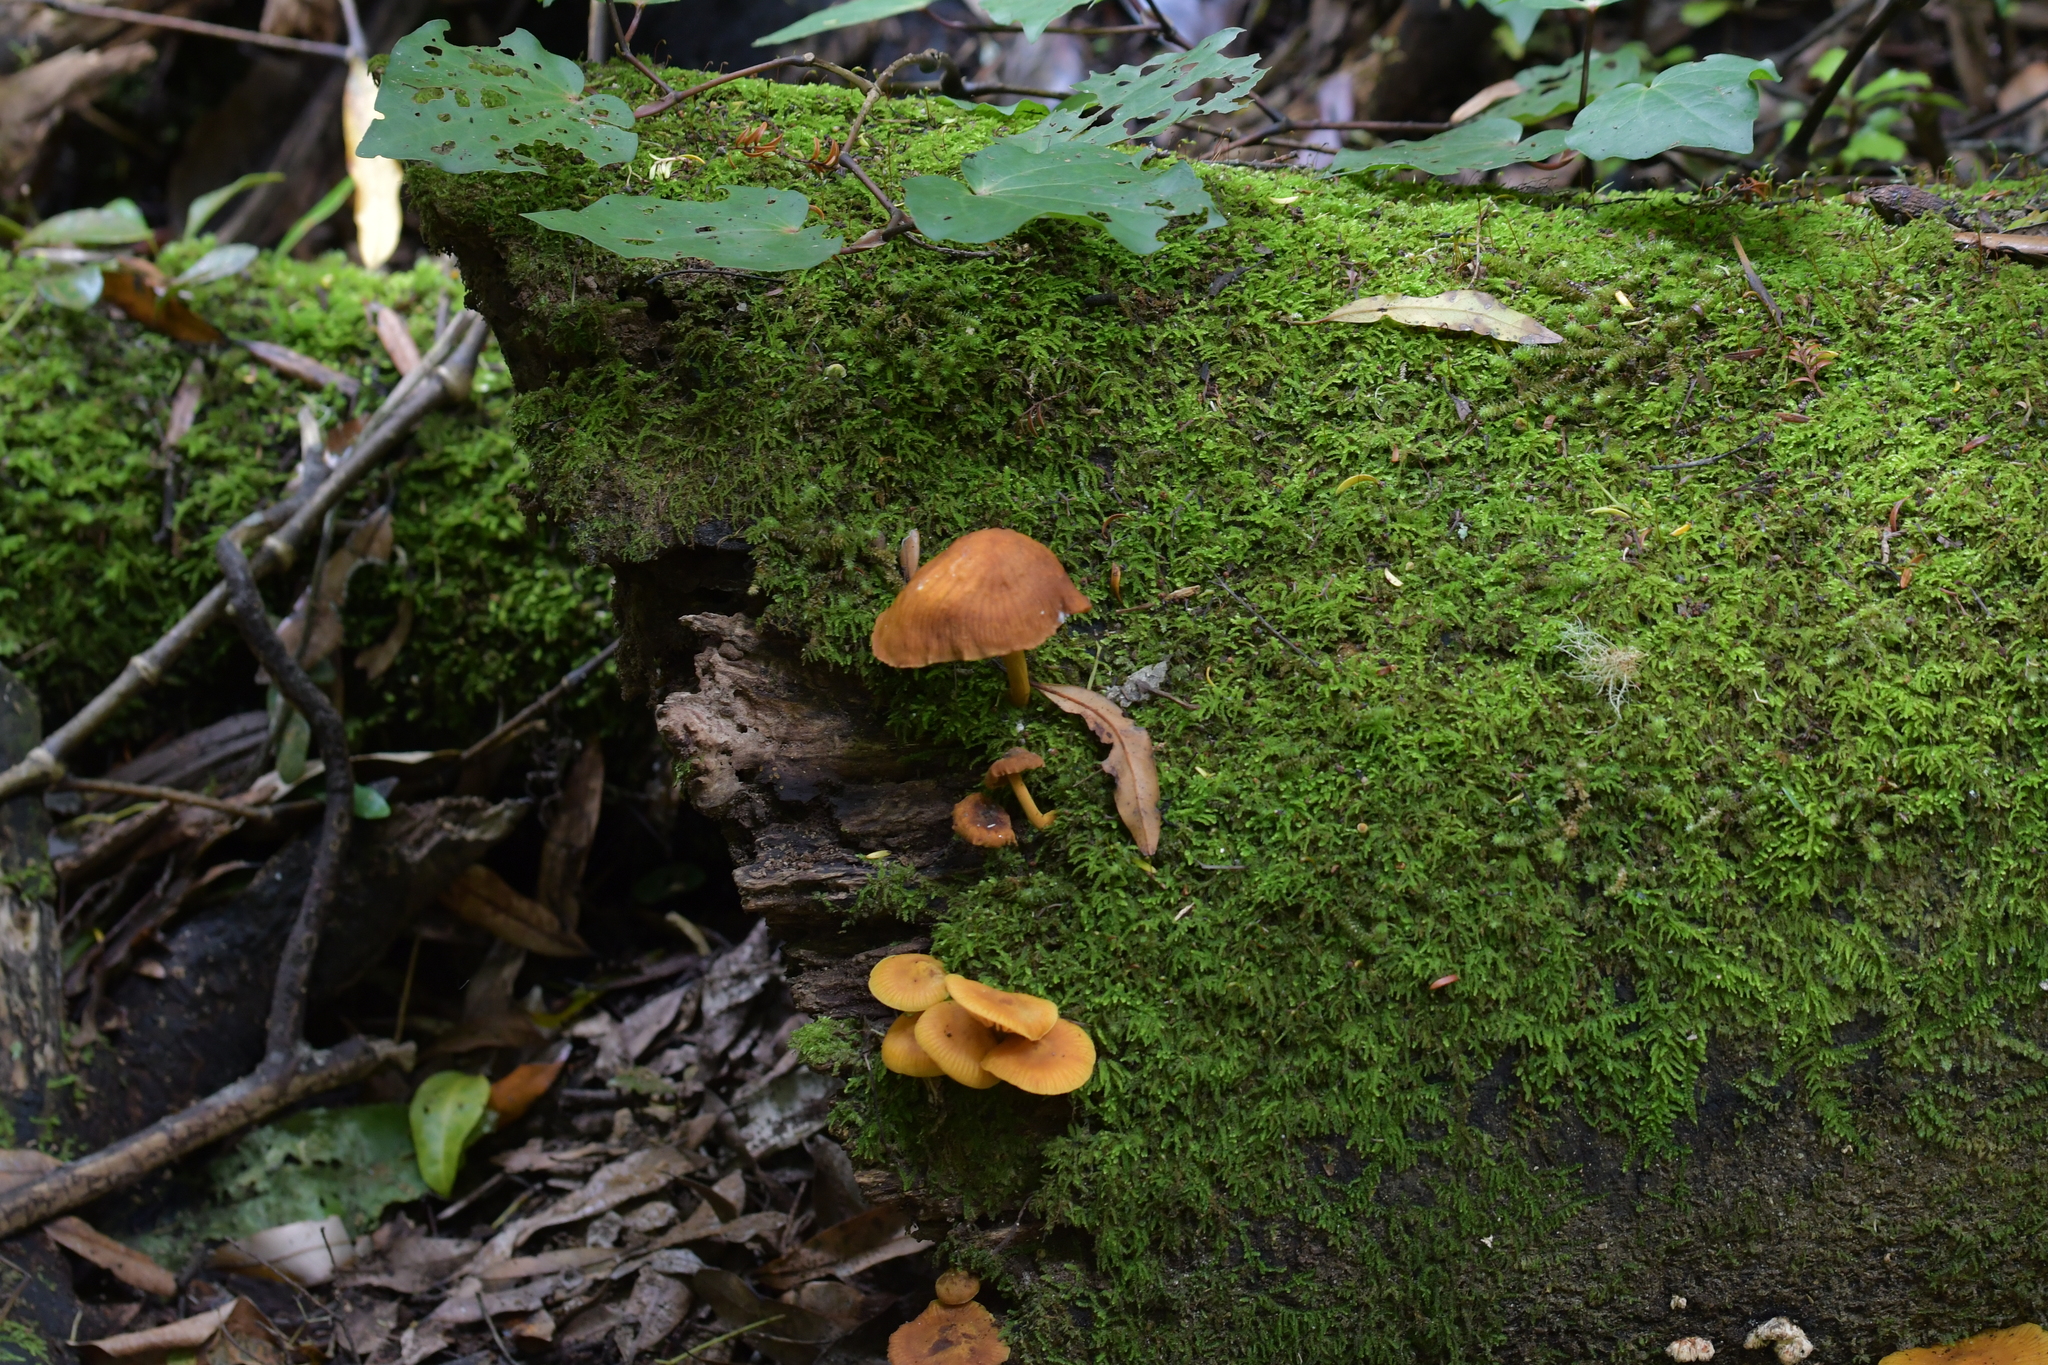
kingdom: Fungi
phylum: Basidiomycota
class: Agaricomycetes
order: Agaricales
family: Mycenaceae
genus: Heimiomyces
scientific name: Heimiomyces velutipes
